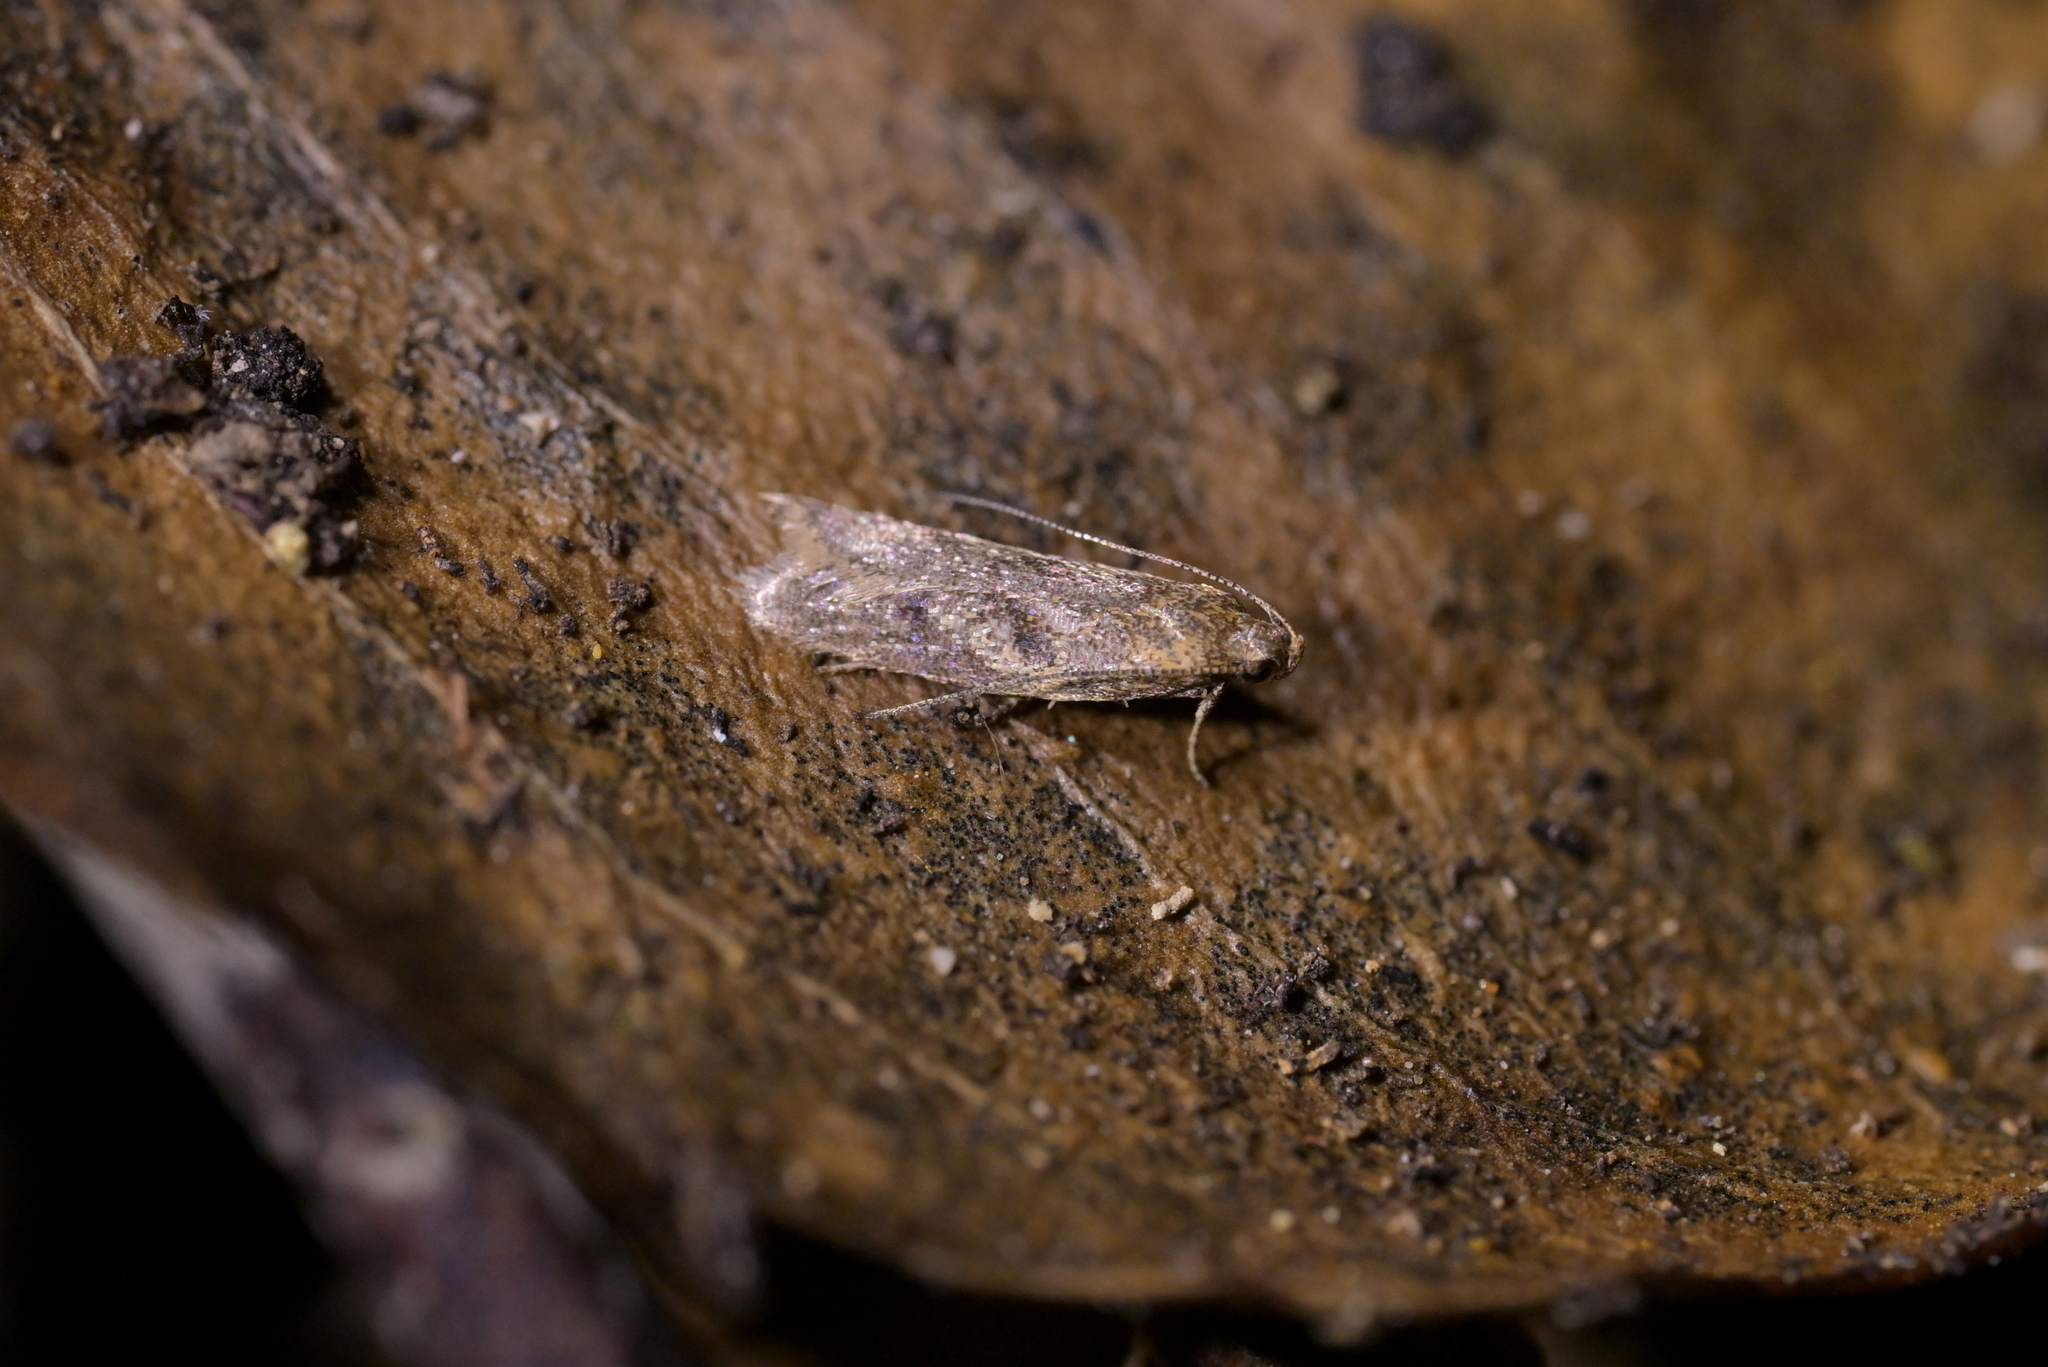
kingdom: Animalia
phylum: Arthropoda
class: Insecta
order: Lepidoptera
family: Oecophoridae
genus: Gymnobathra
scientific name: Gymnobathra tholodella
